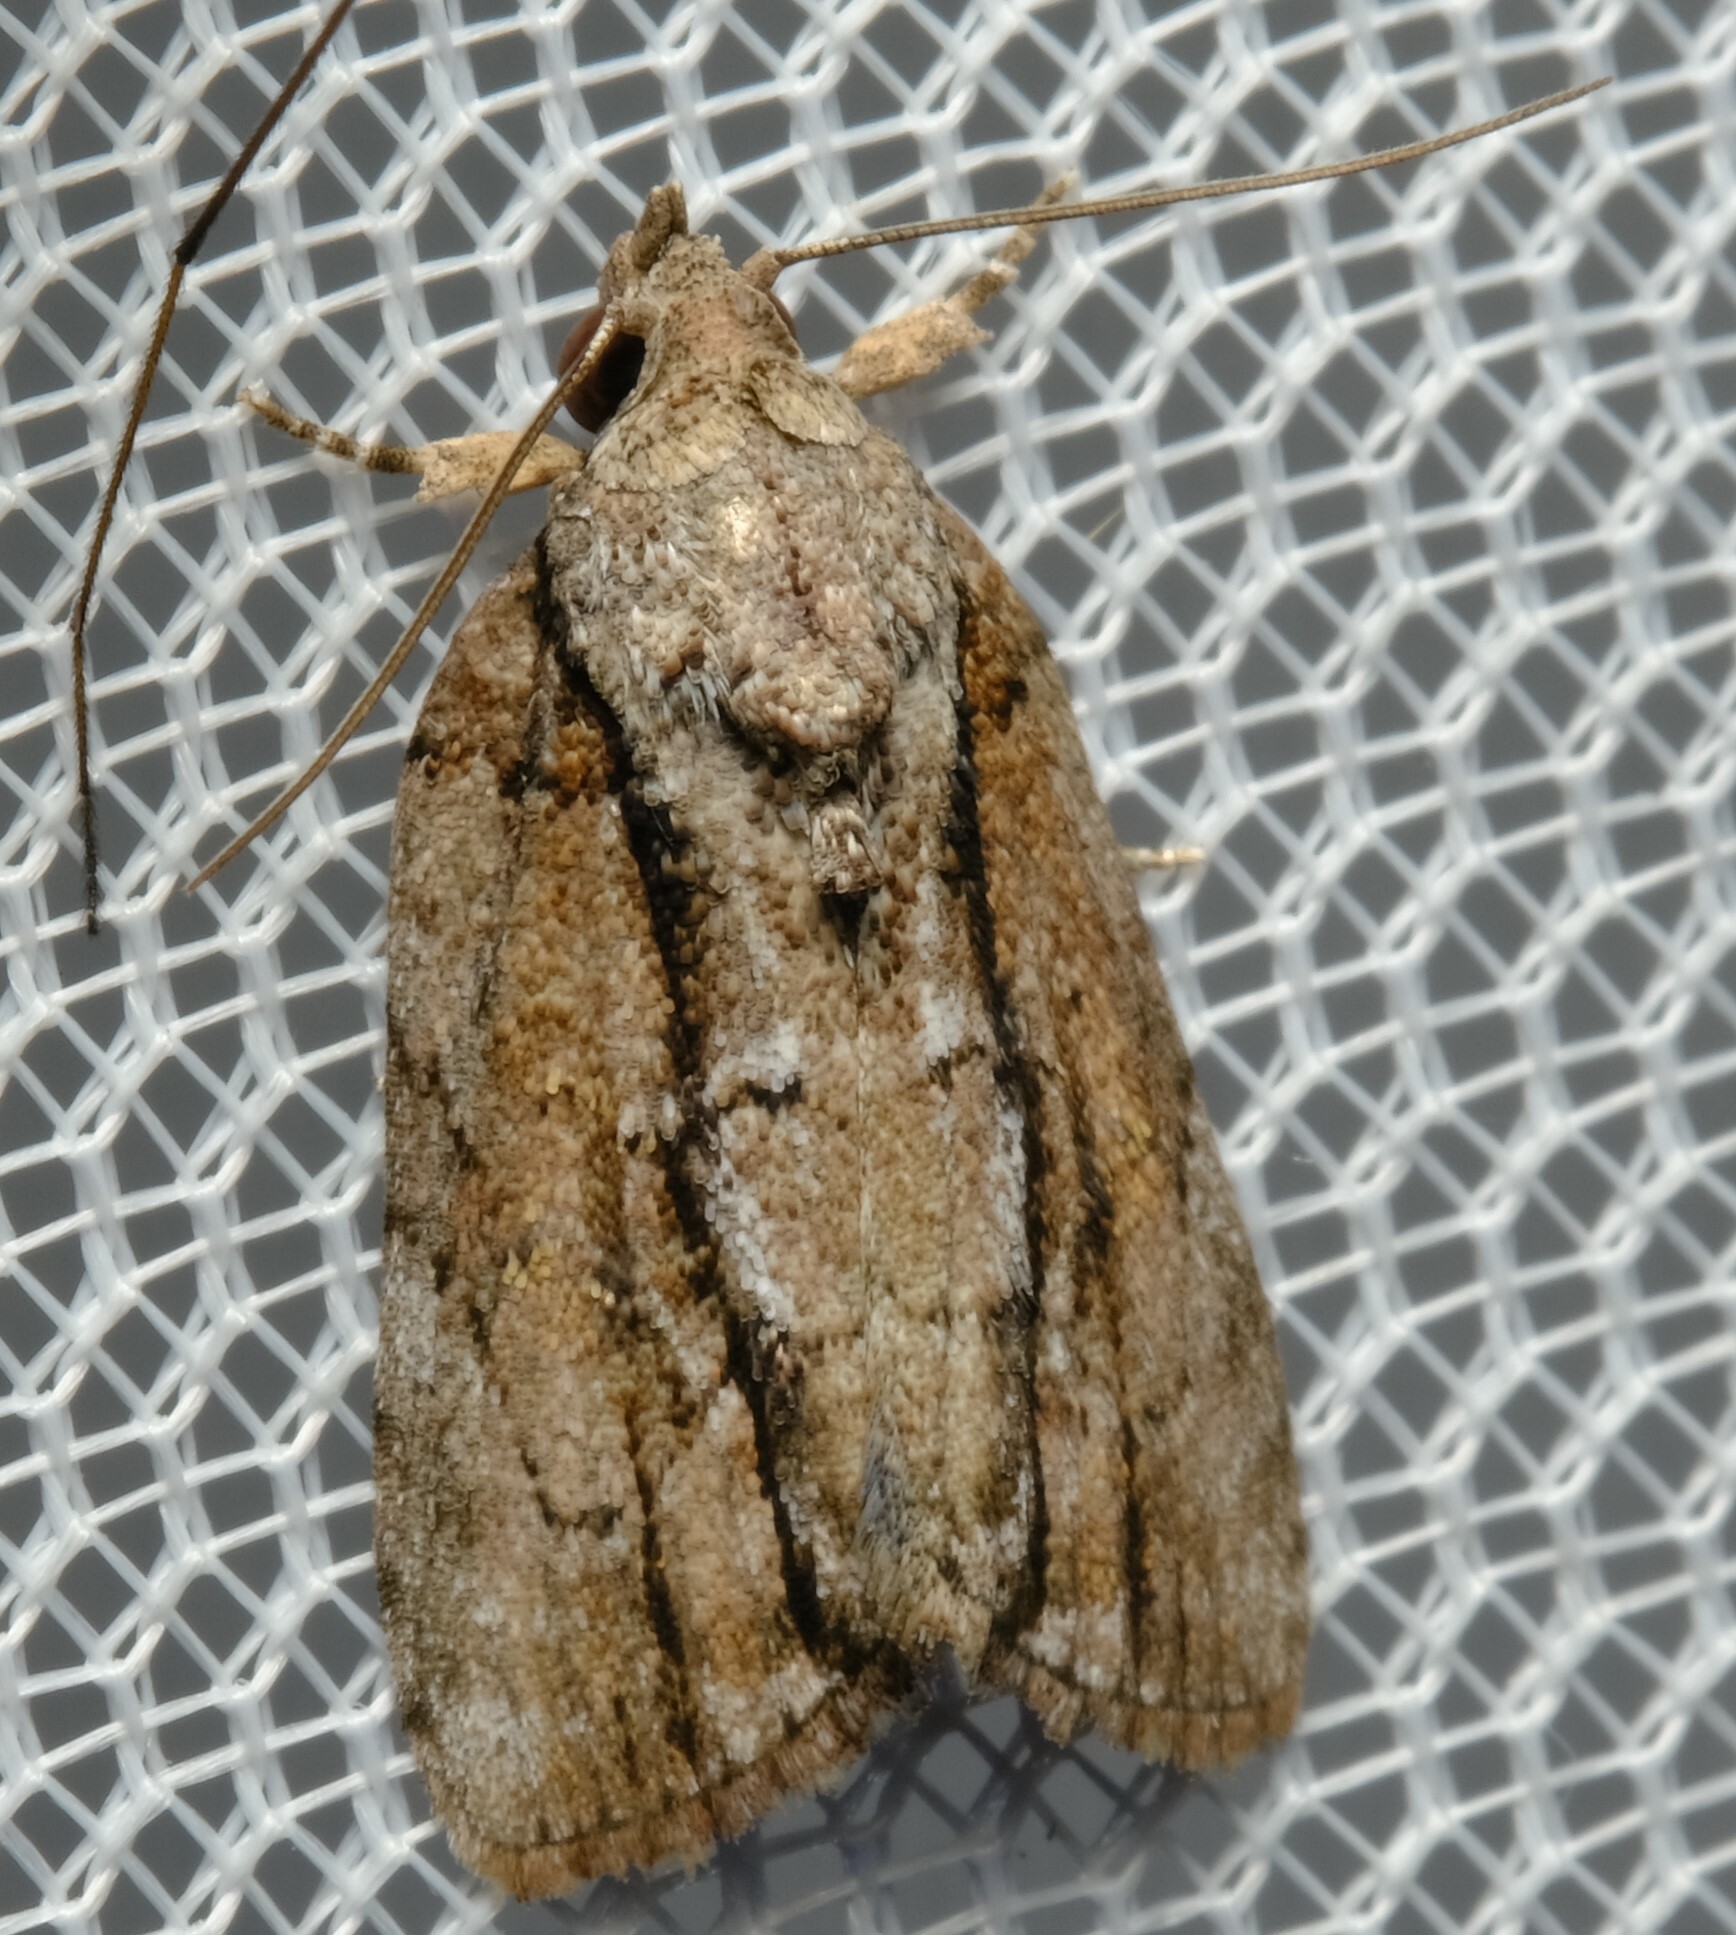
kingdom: Animalia
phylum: Arthropoda
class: Insecta
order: Lepidoptera
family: Nolidae
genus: Etanna
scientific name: Etanna clopaea
